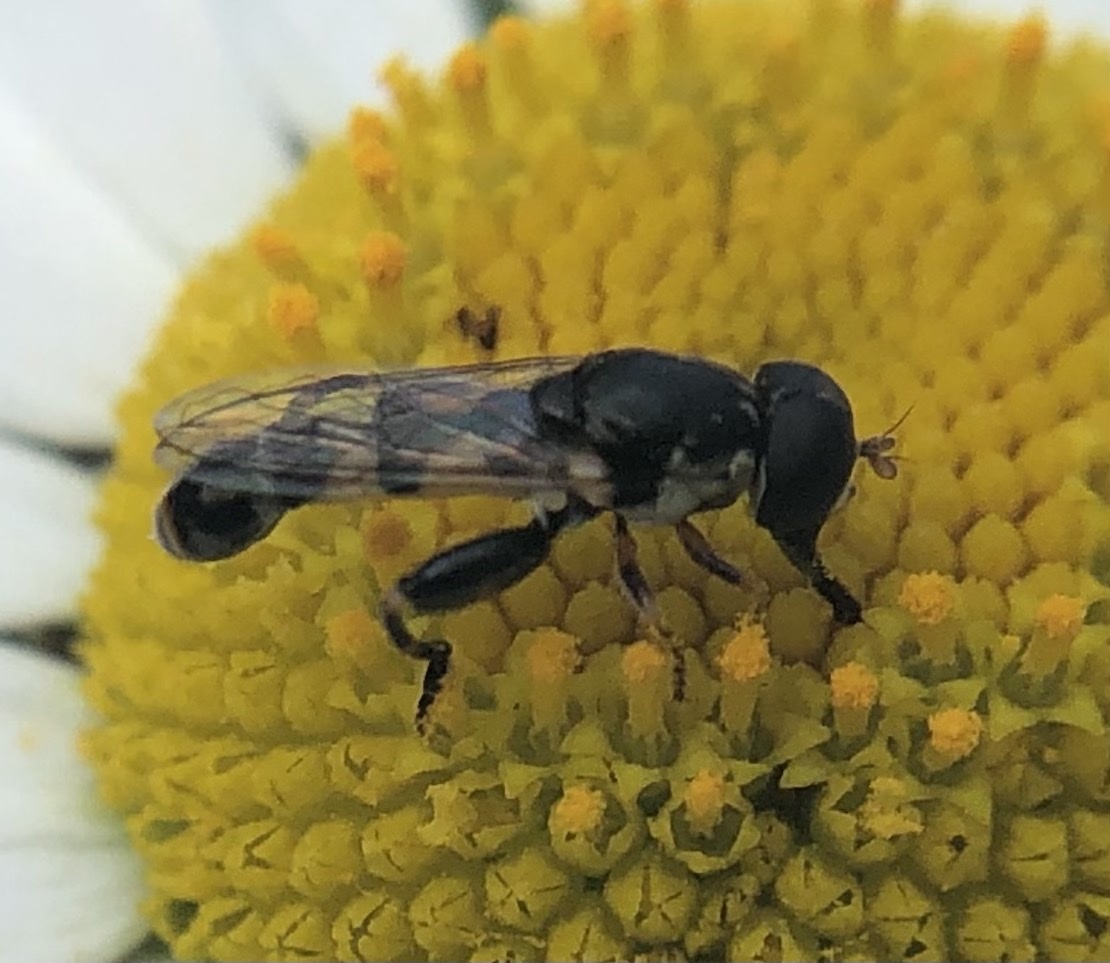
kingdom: Animalia
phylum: Arthropoda
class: Insecta
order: Diptera
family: Syrphidae
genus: Syritta
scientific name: Syritta pipiens
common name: Hover fly
